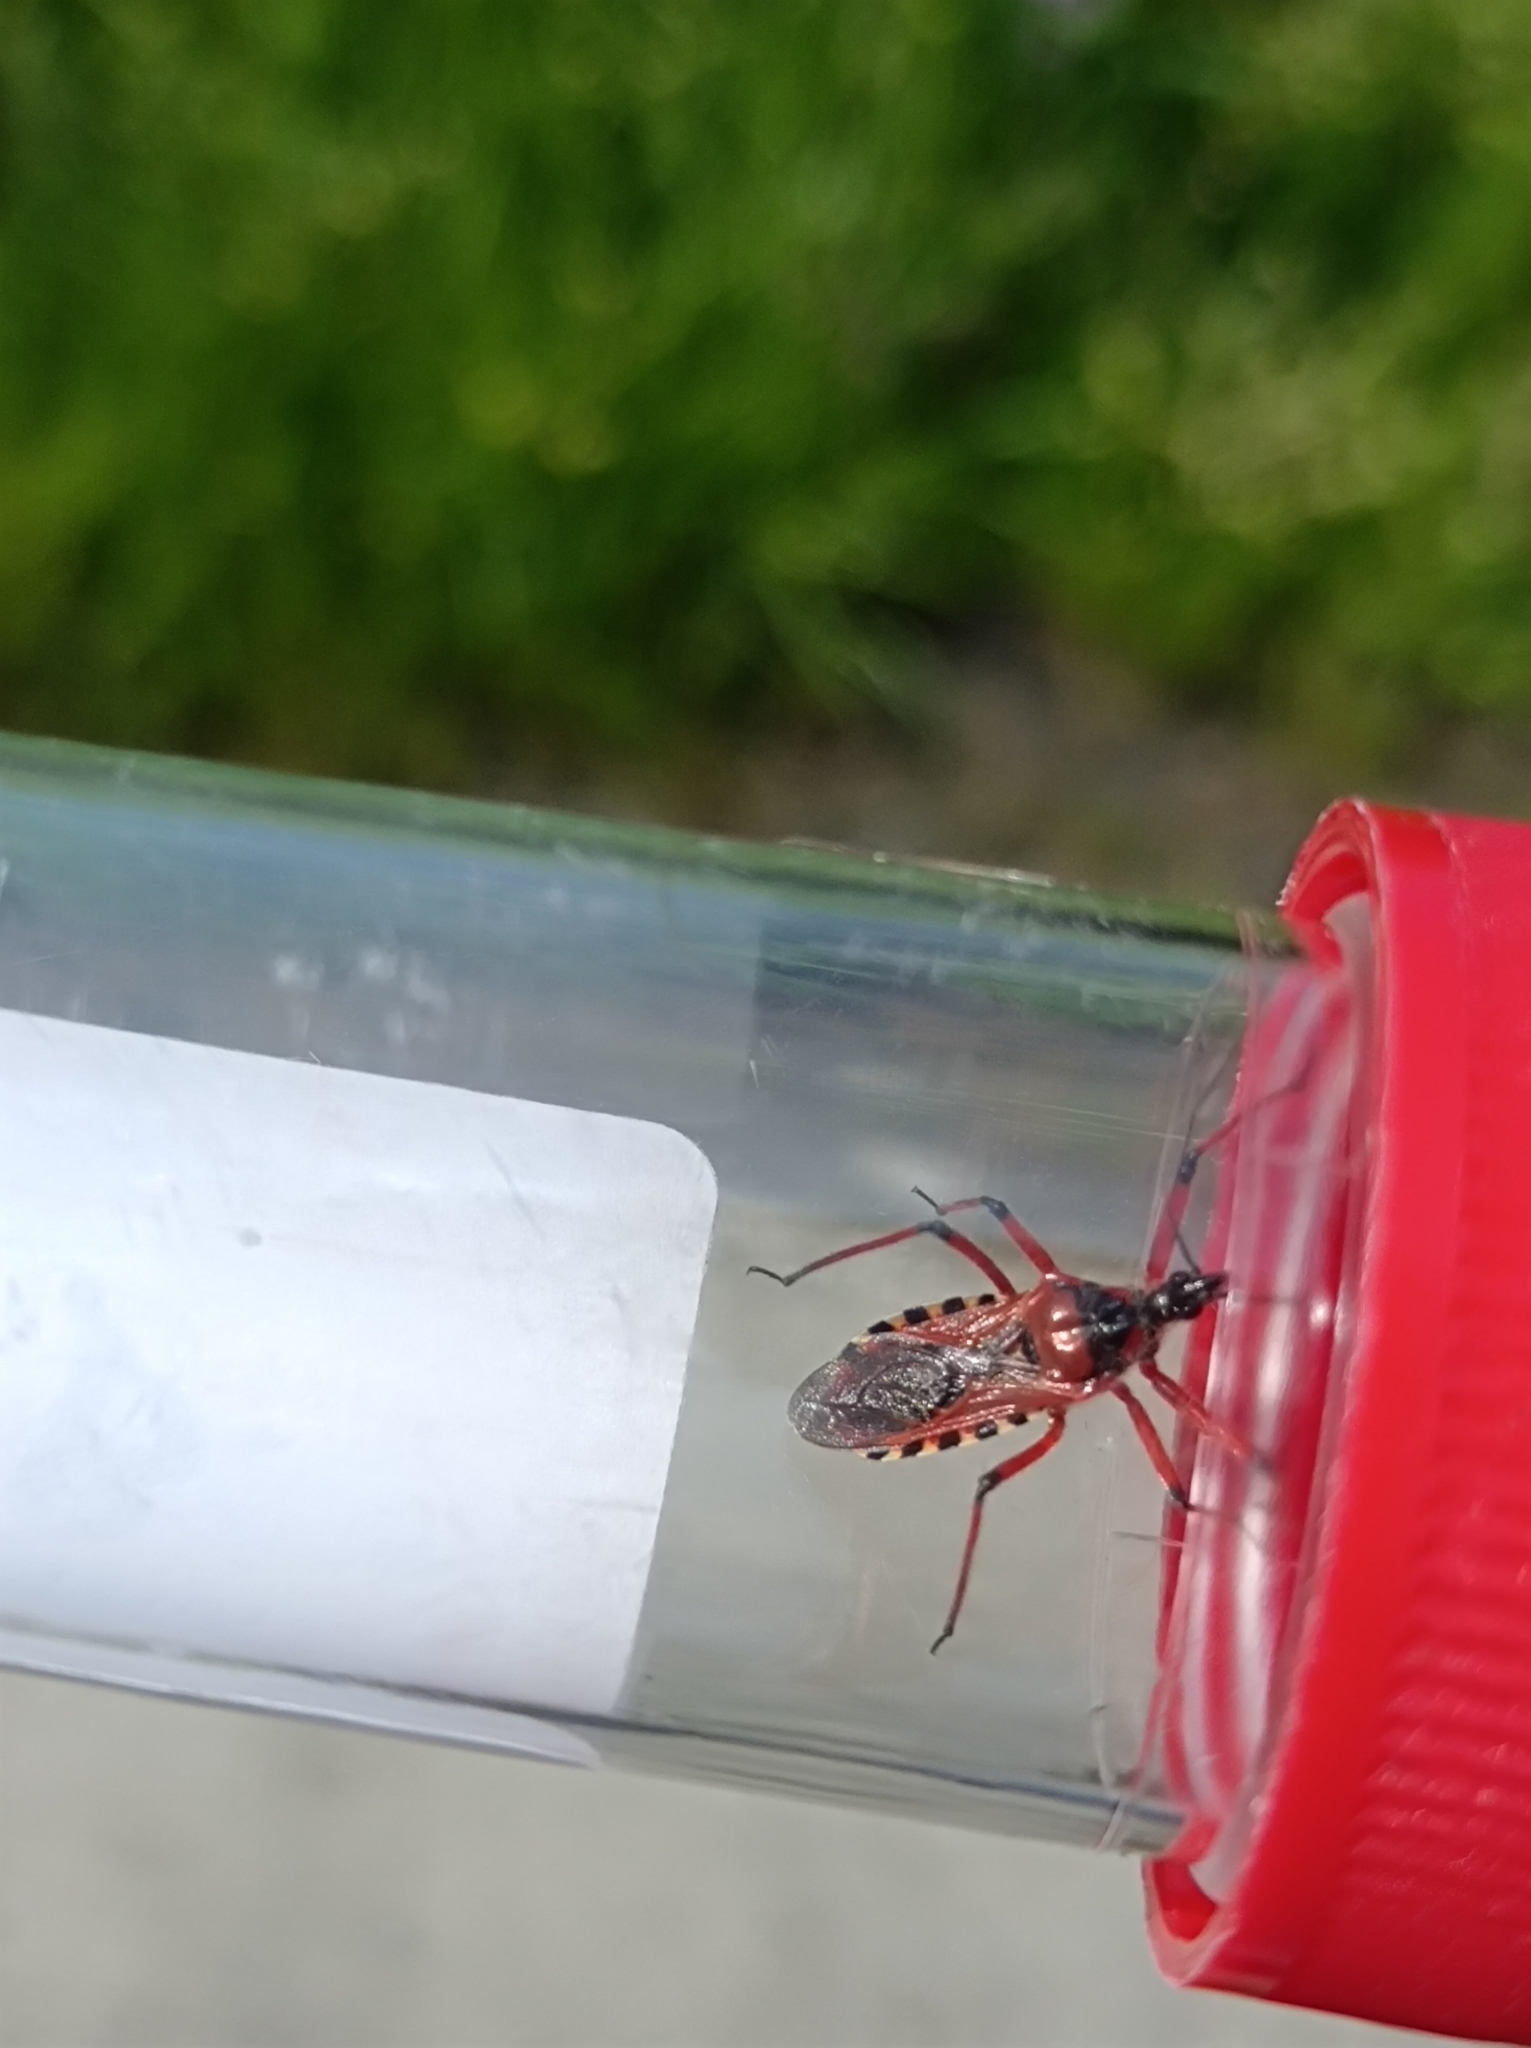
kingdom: Animalia
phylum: Arthropoda
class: Insecta
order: Hemiptera
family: Reduviidae
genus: Rhynocoris
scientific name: Rhynocoris iracundus
